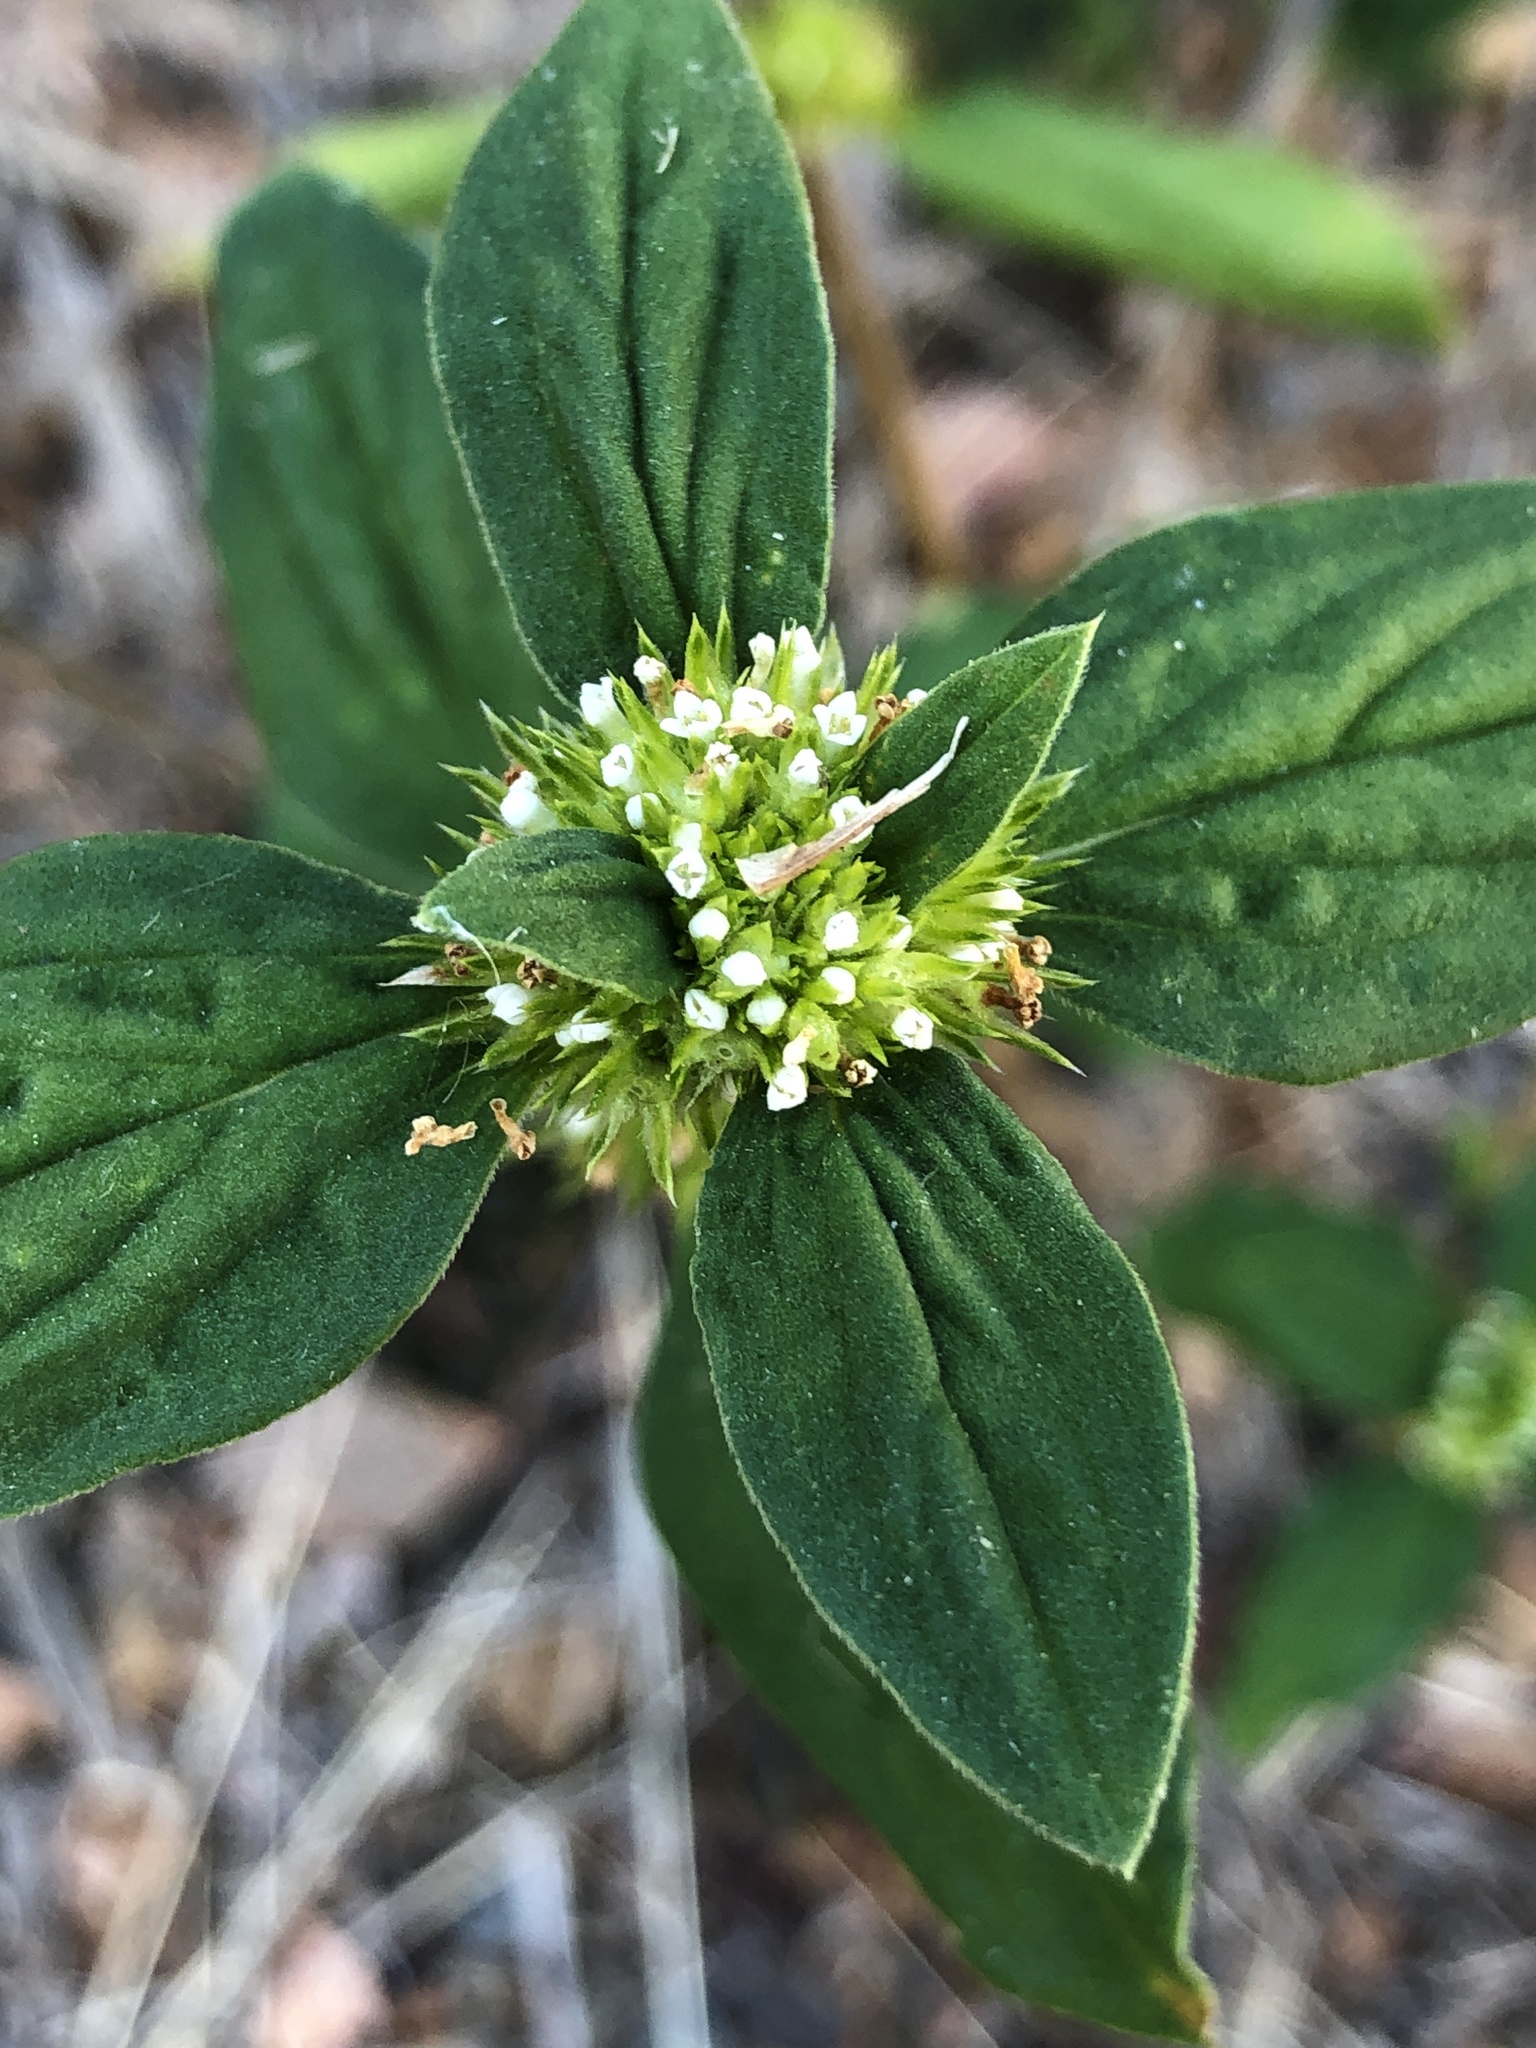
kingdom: Plantae
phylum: Tracheophyta
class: Magnoliopsida
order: Gentianales
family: Rubiaceae
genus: Mitracarpus
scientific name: Mitracarpus hirtus
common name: Tropical girdlepod
